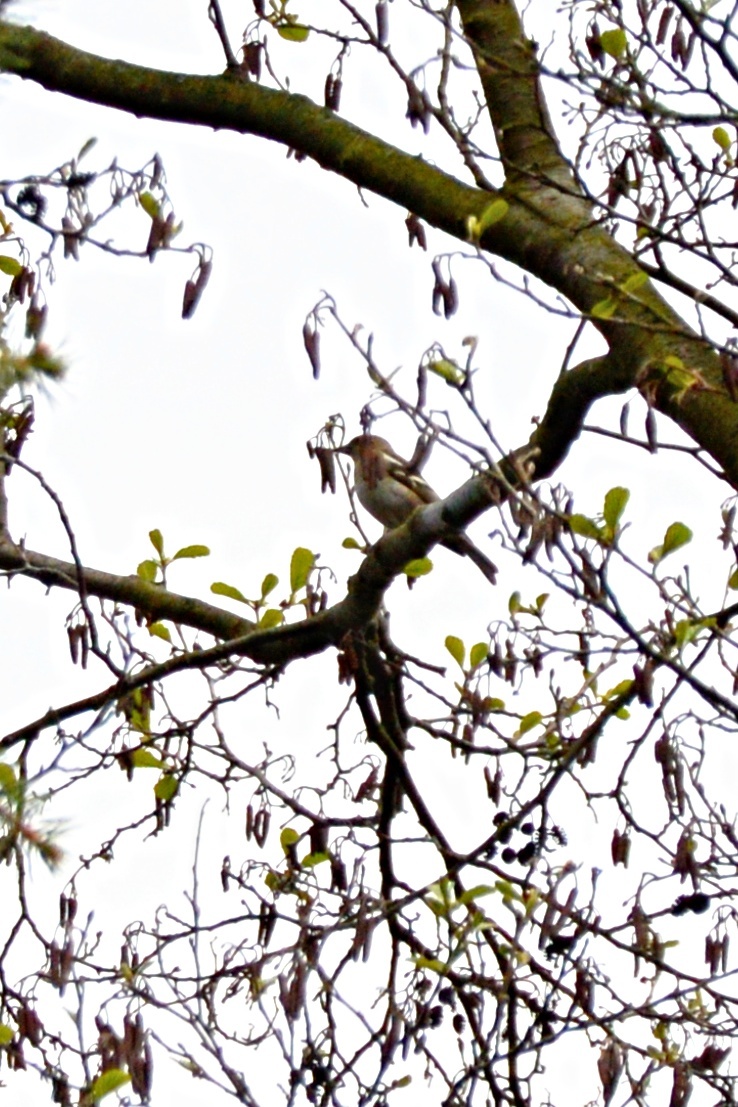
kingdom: Animalia
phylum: Chordata
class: Aves
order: Passeriformes
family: Fringillidae
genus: Fringilla
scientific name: Fringilla coelebs
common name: Common chaffinch
